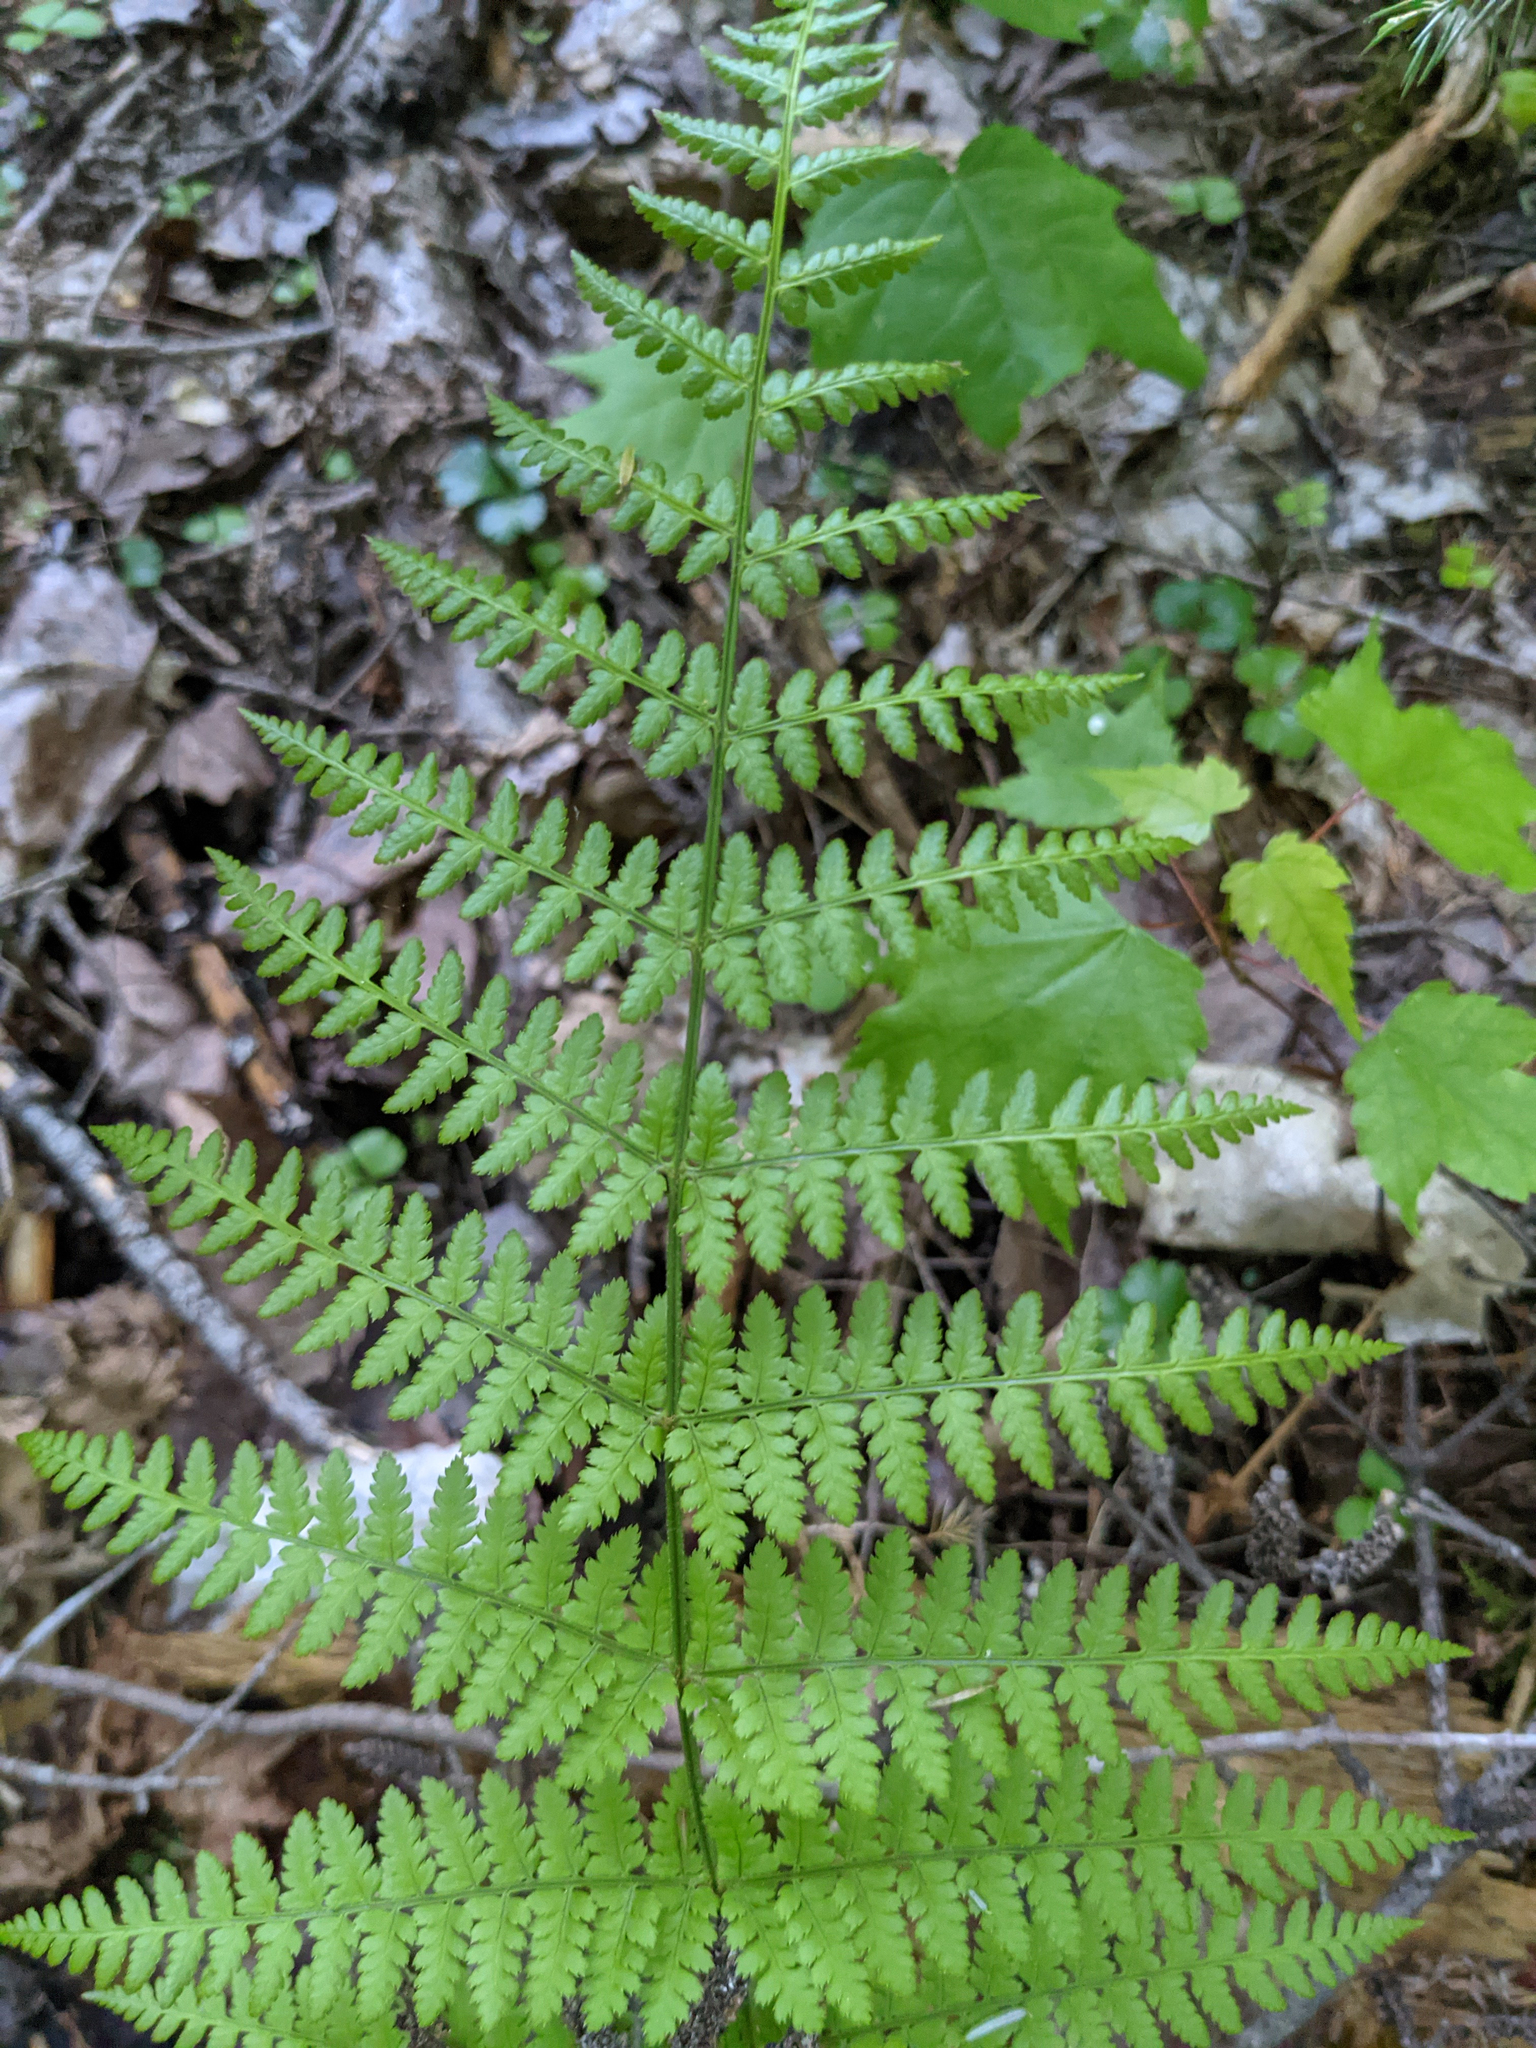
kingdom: Plantae
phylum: Tracheophyta
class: Polypodiopsida
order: Polypodiales
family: Dryopteridaceae
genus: Dryopteris
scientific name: Dryopteris intermedia
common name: Evergreen wood fern
